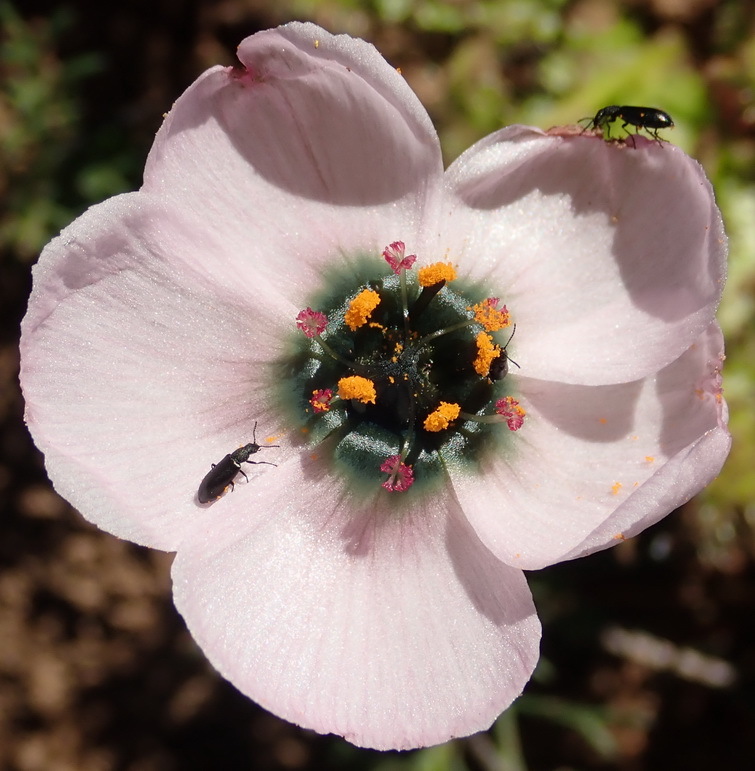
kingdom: Plantae
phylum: Tracheophyta
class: Magnoliopsida
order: Caryophyllales
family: Droseraceae
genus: Drosera
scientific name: Drosera cistiflora
